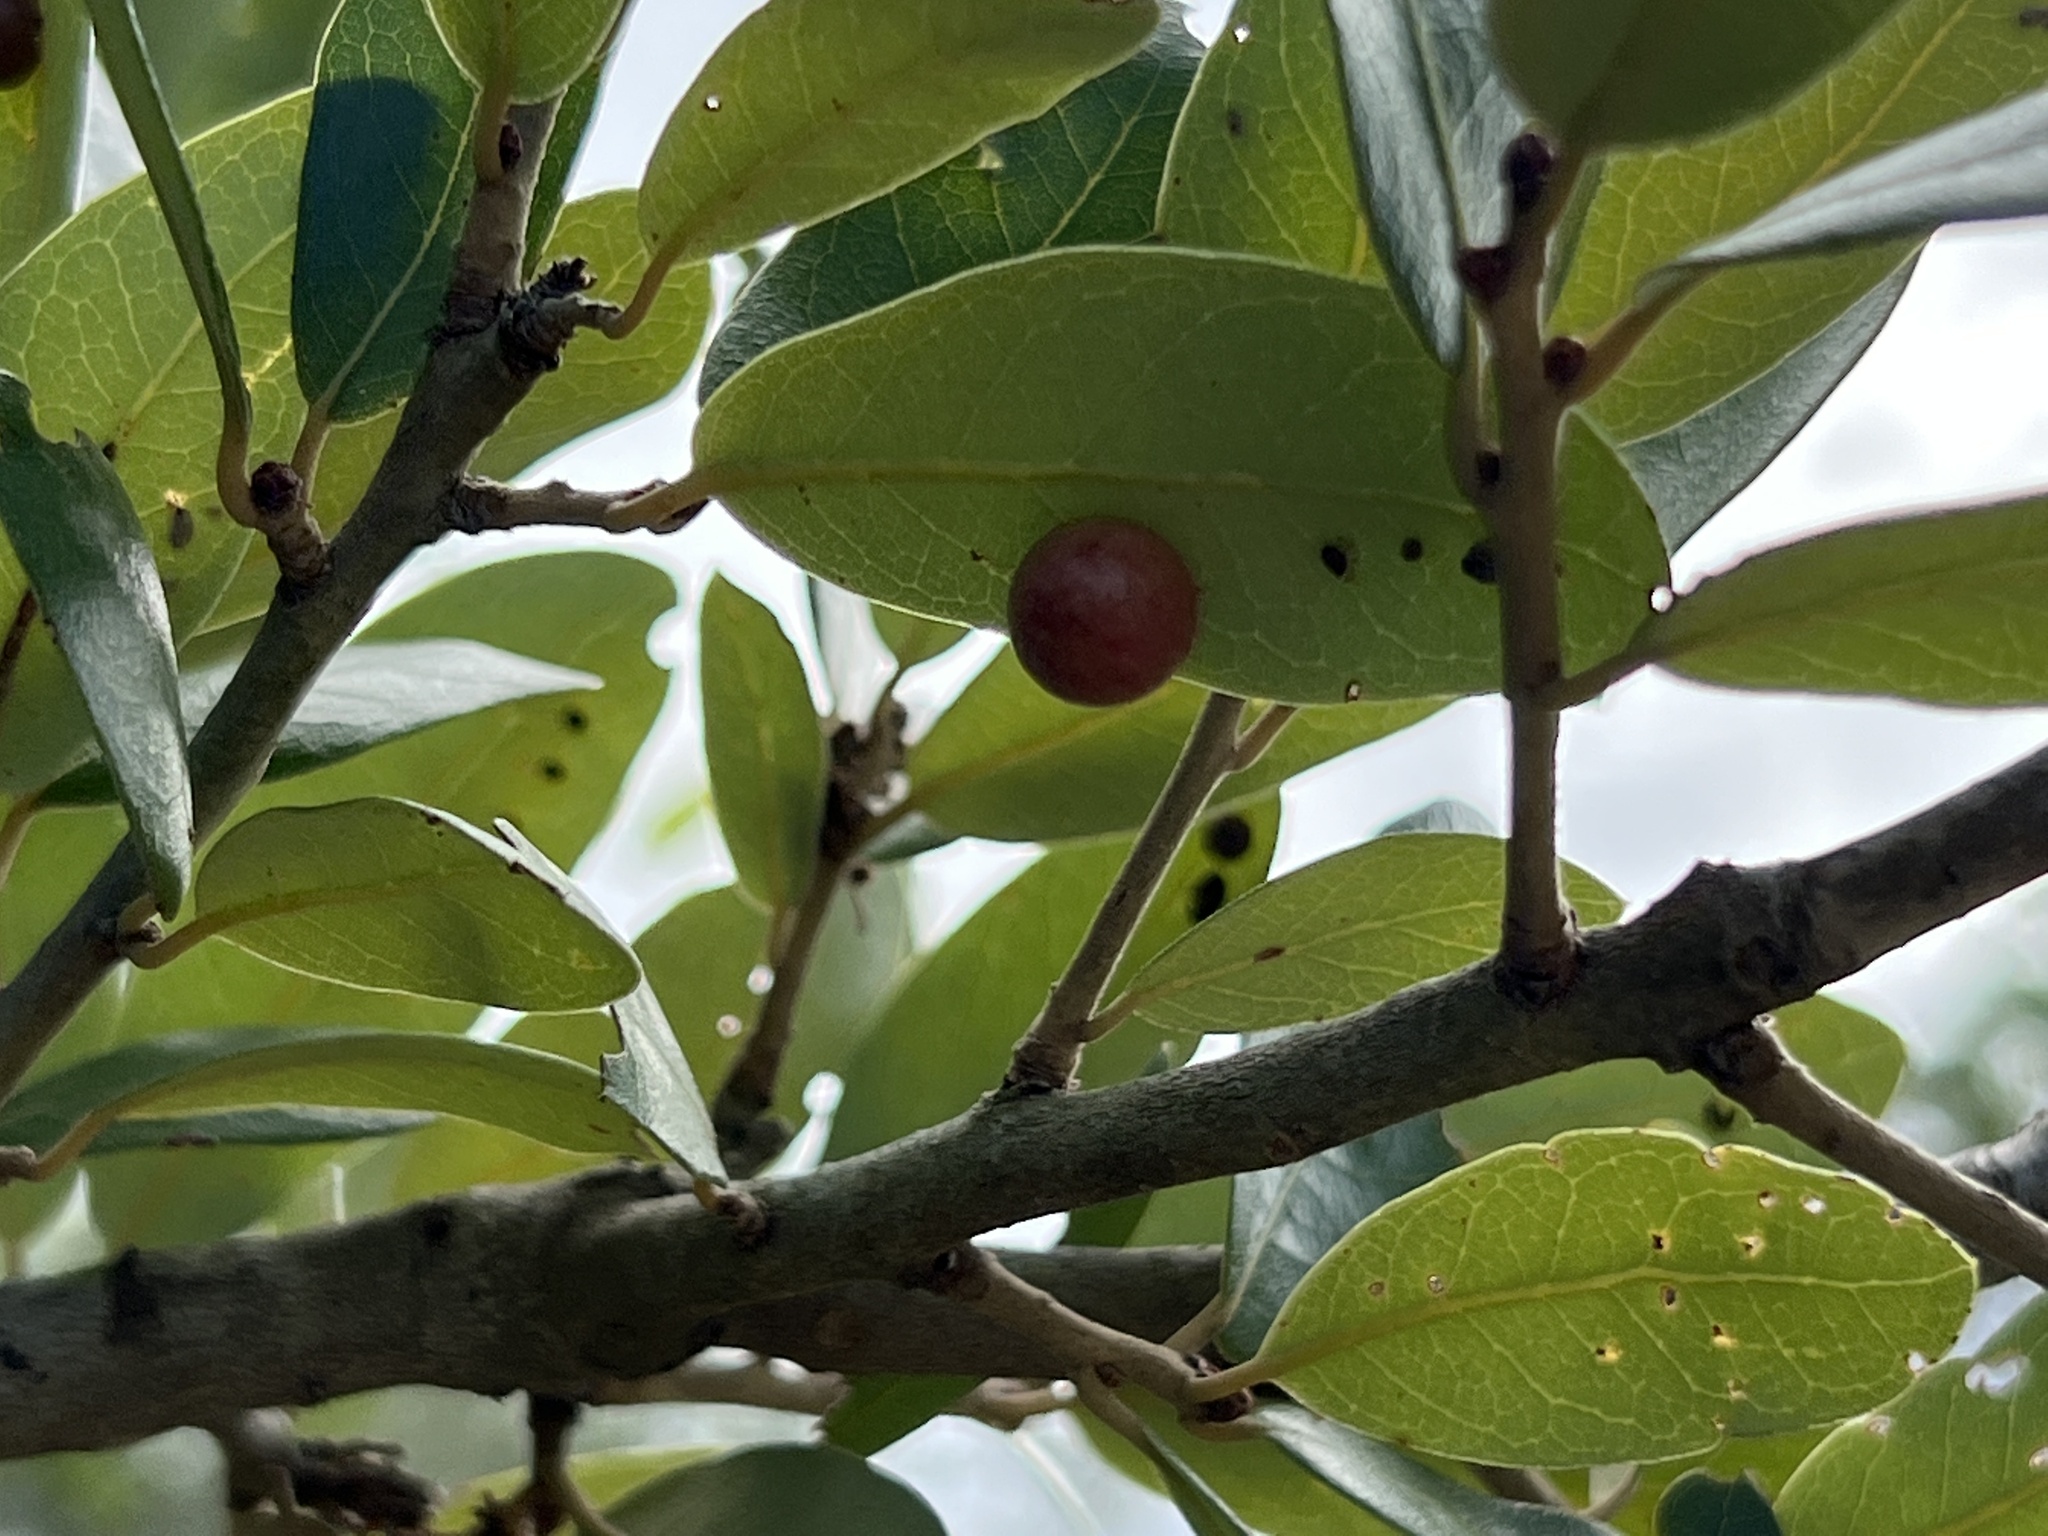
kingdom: Animalia
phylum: Arthropoda
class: Insecta
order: Hymenoptera
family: Cynipidae
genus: Belonocnema
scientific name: Belonocnema kinseyi
